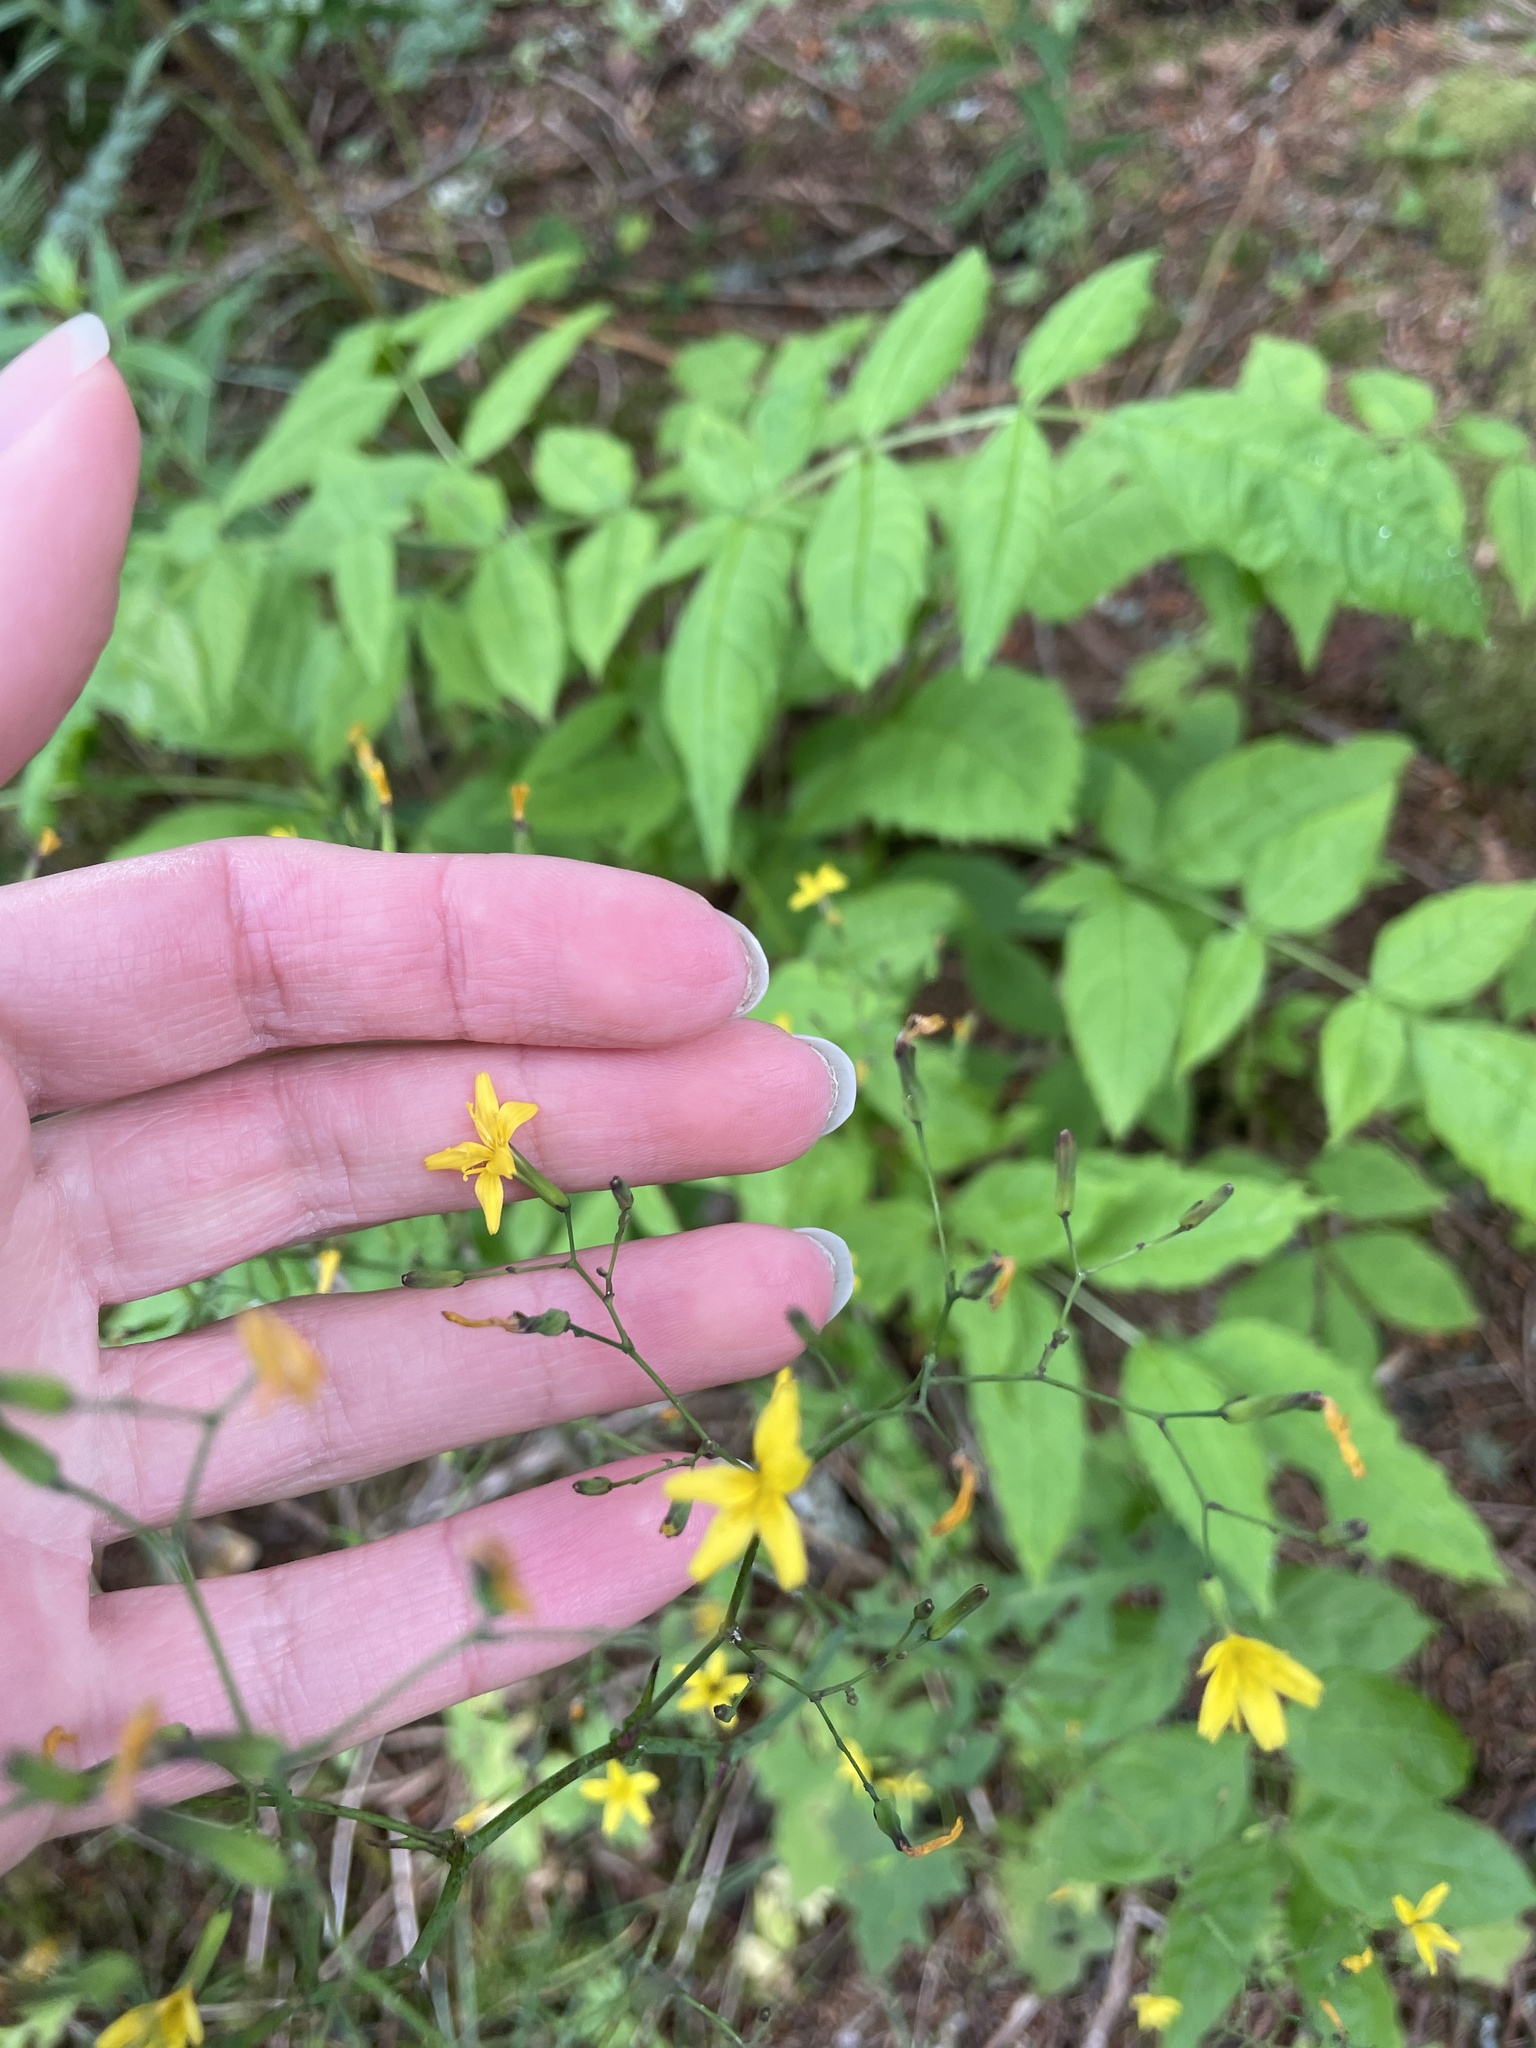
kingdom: Plantae
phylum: Tracheophyta
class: Magnoliopsida
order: Asterales
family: Asteraceae
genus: Mycelis
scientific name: Mycelis muralis
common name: Wall lettuce
